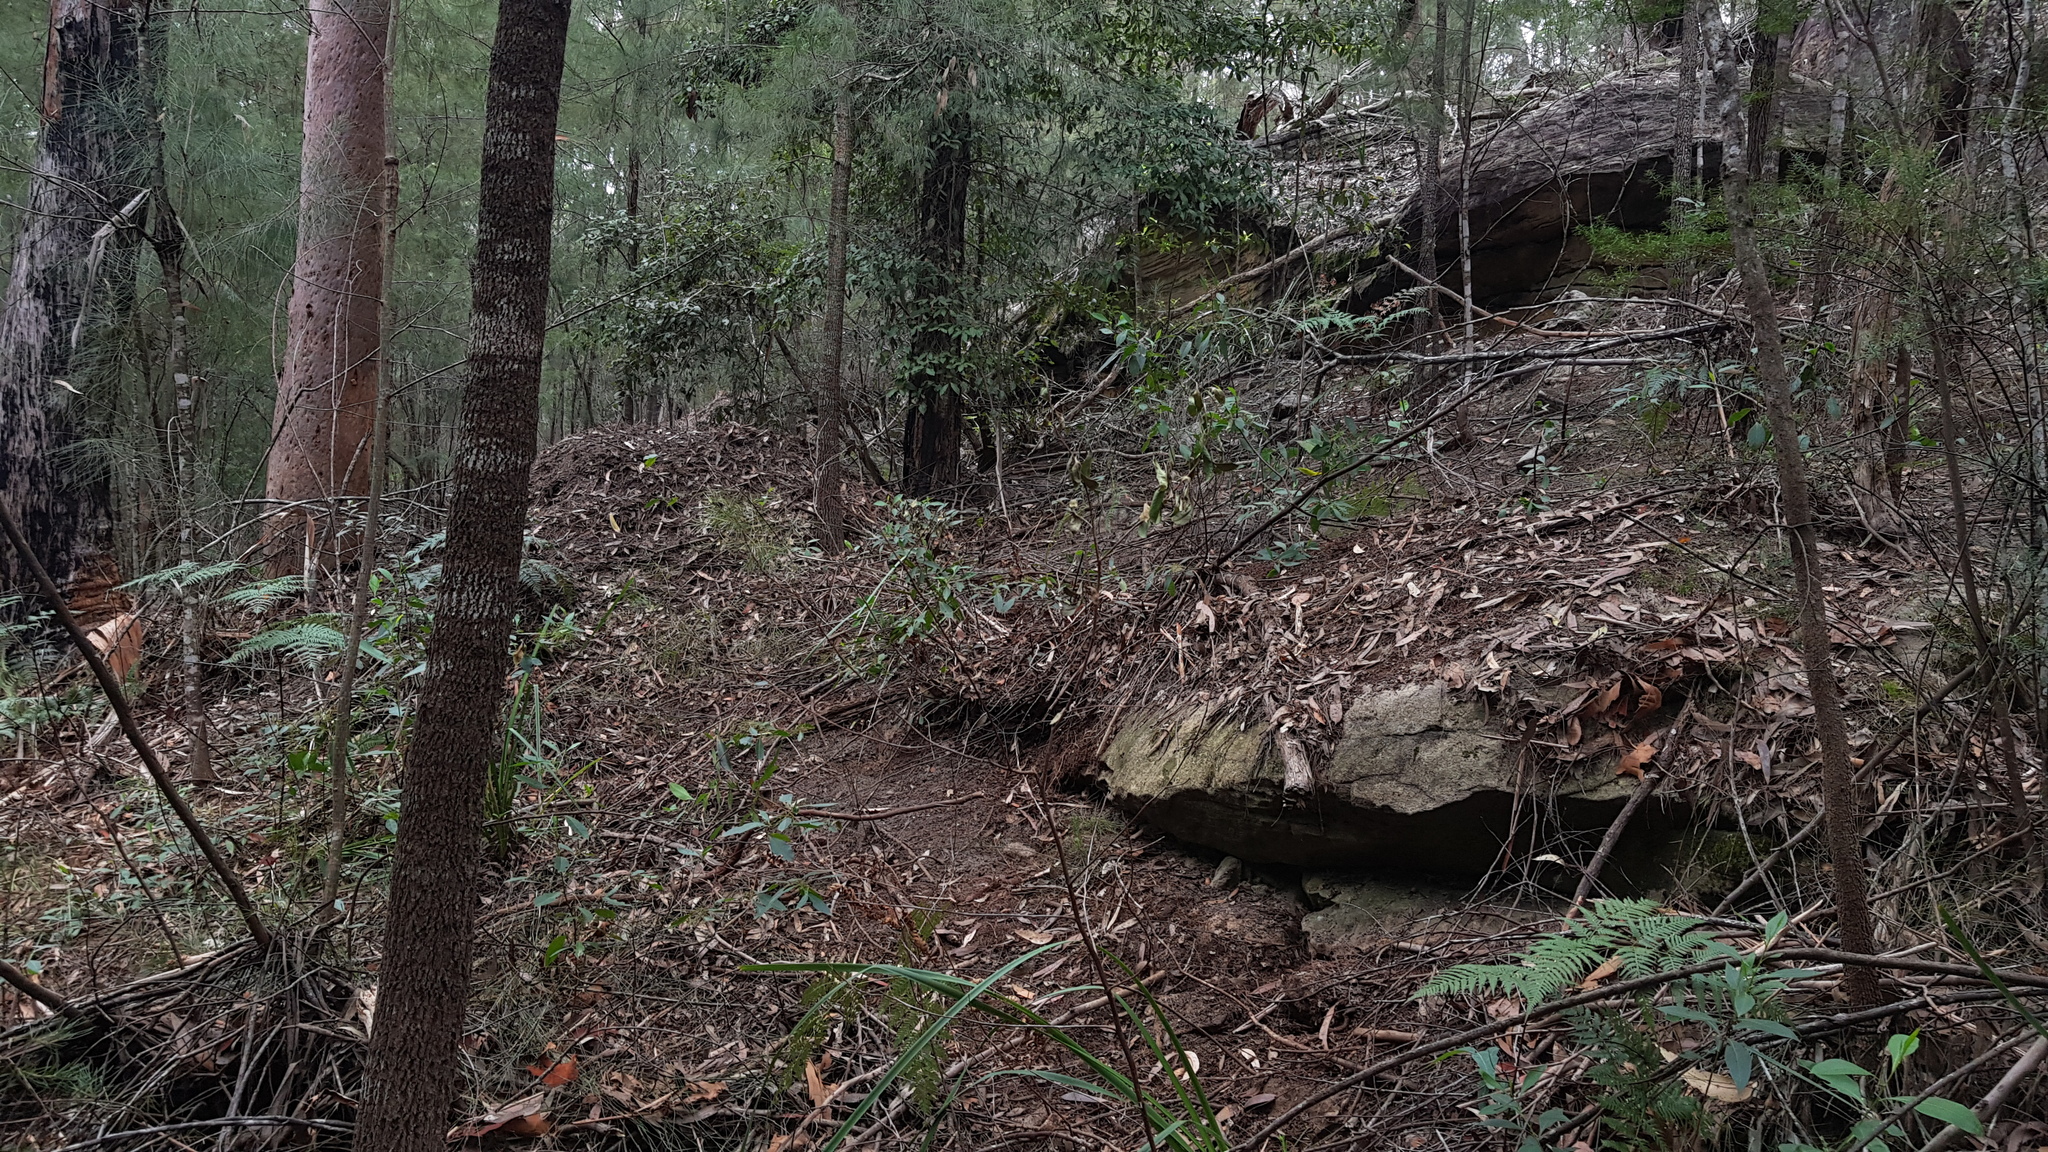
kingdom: Animalia
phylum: Chordata
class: Aves
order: Galliformes
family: Megapodiidae
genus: Alectura
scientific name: Alectura lathami
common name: Australian brushturkey
